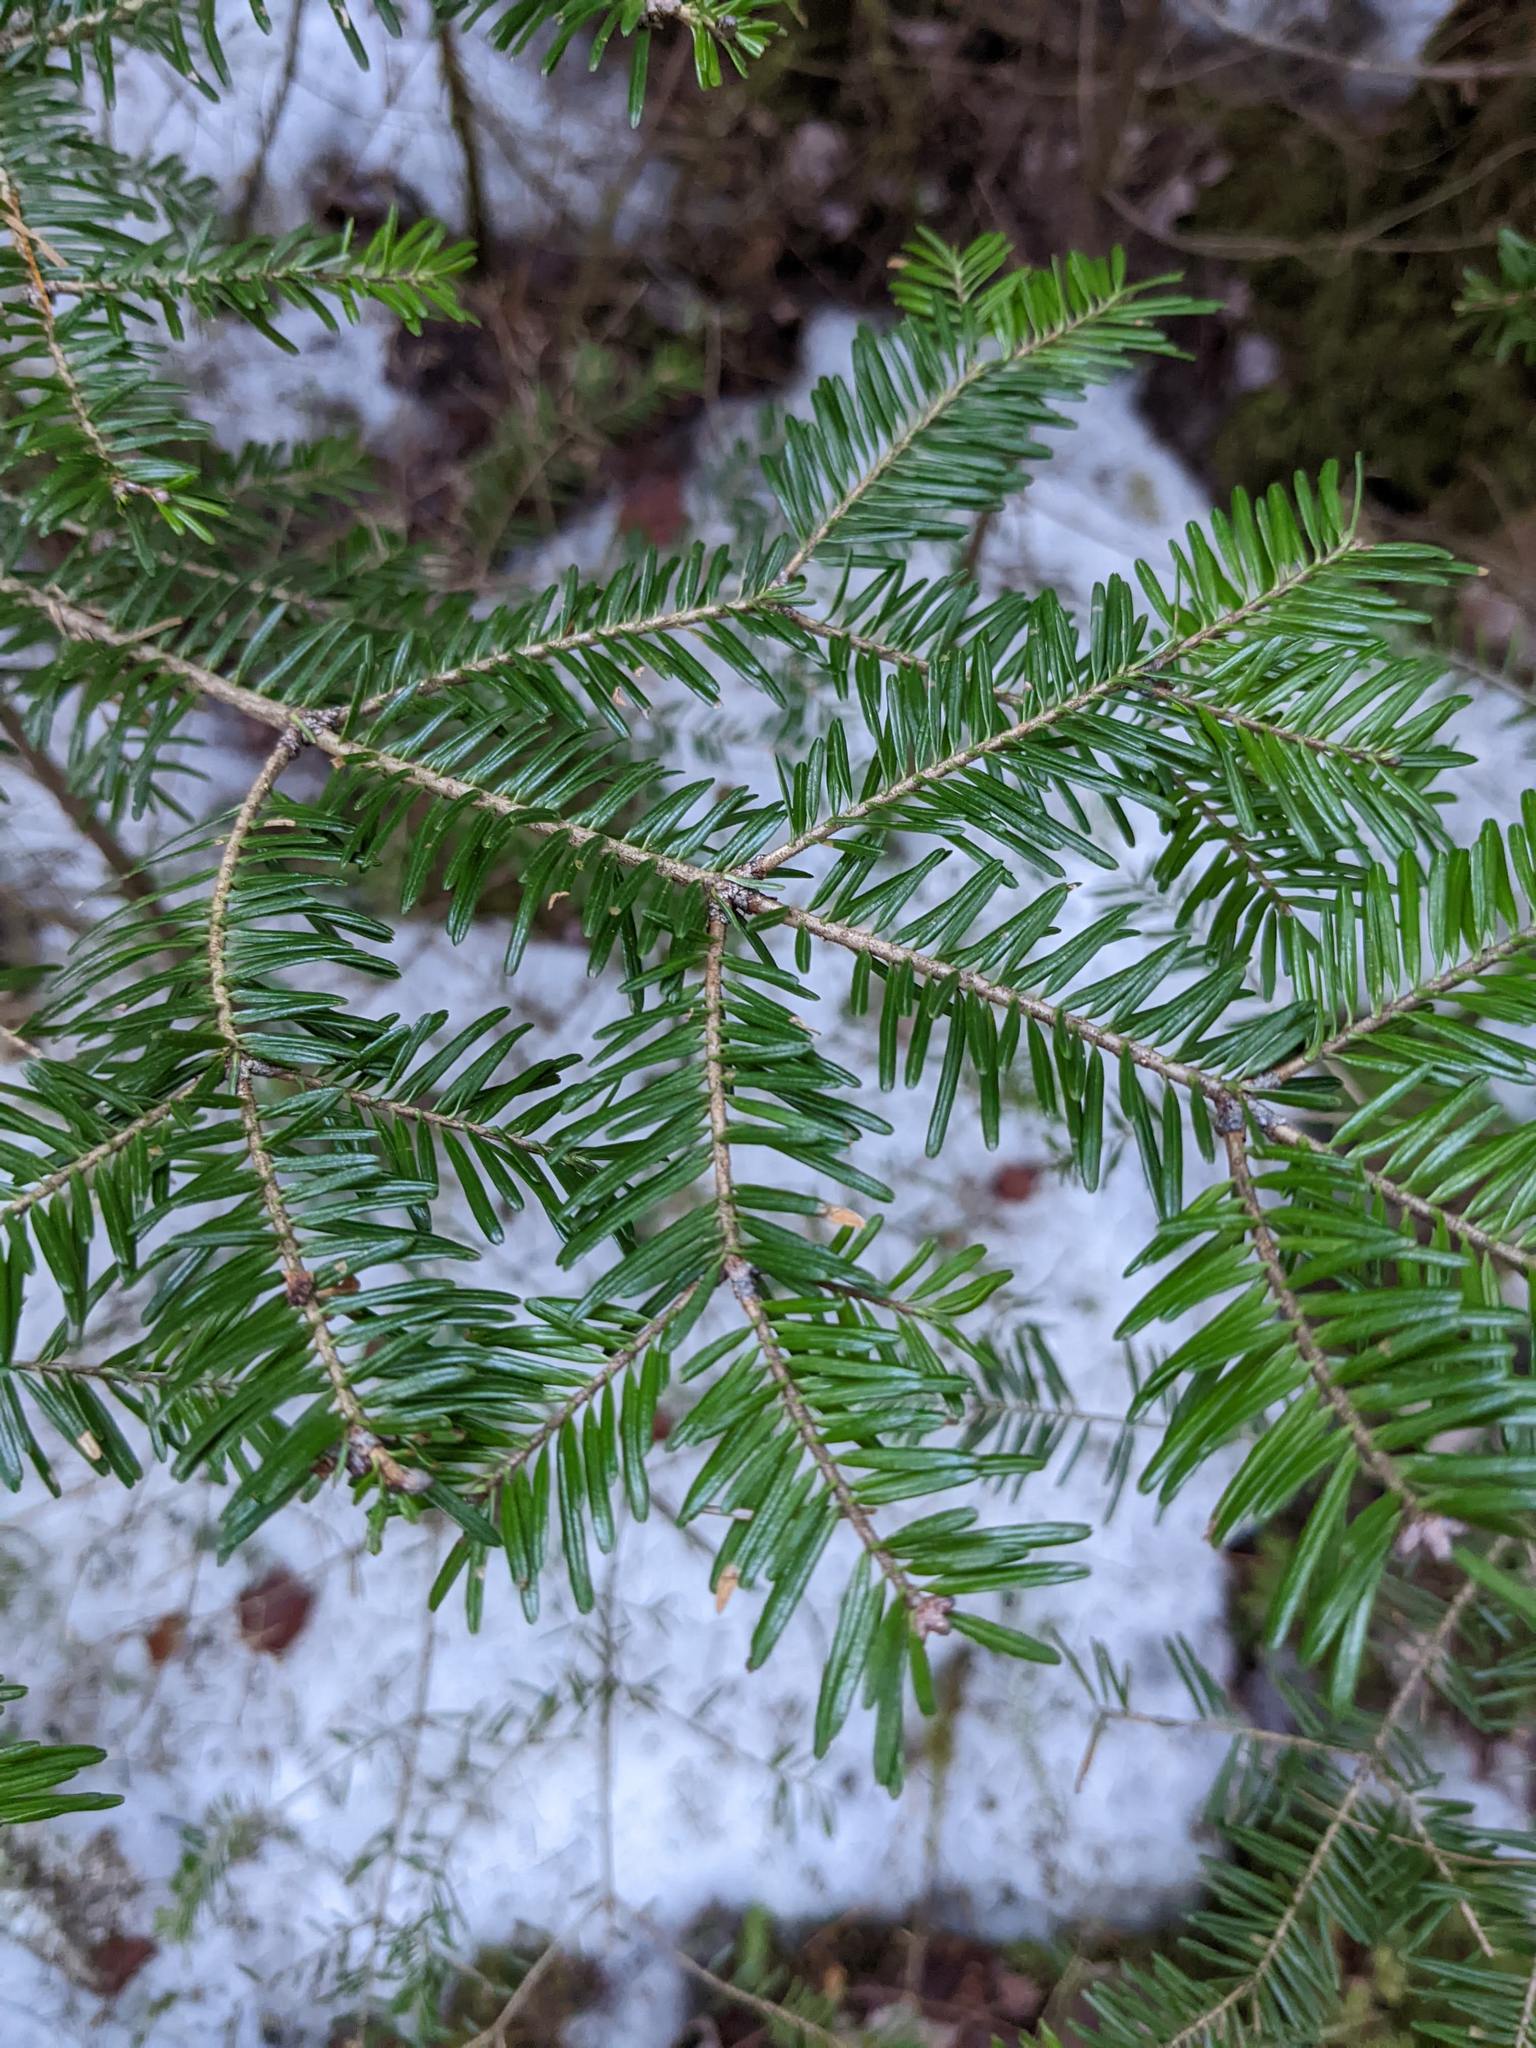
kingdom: Plantae
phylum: Tracheophyta
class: Pinopsida
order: Pinales
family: Pinaceae
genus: Abies
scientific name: Abies balsamea
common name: Balsam fir
